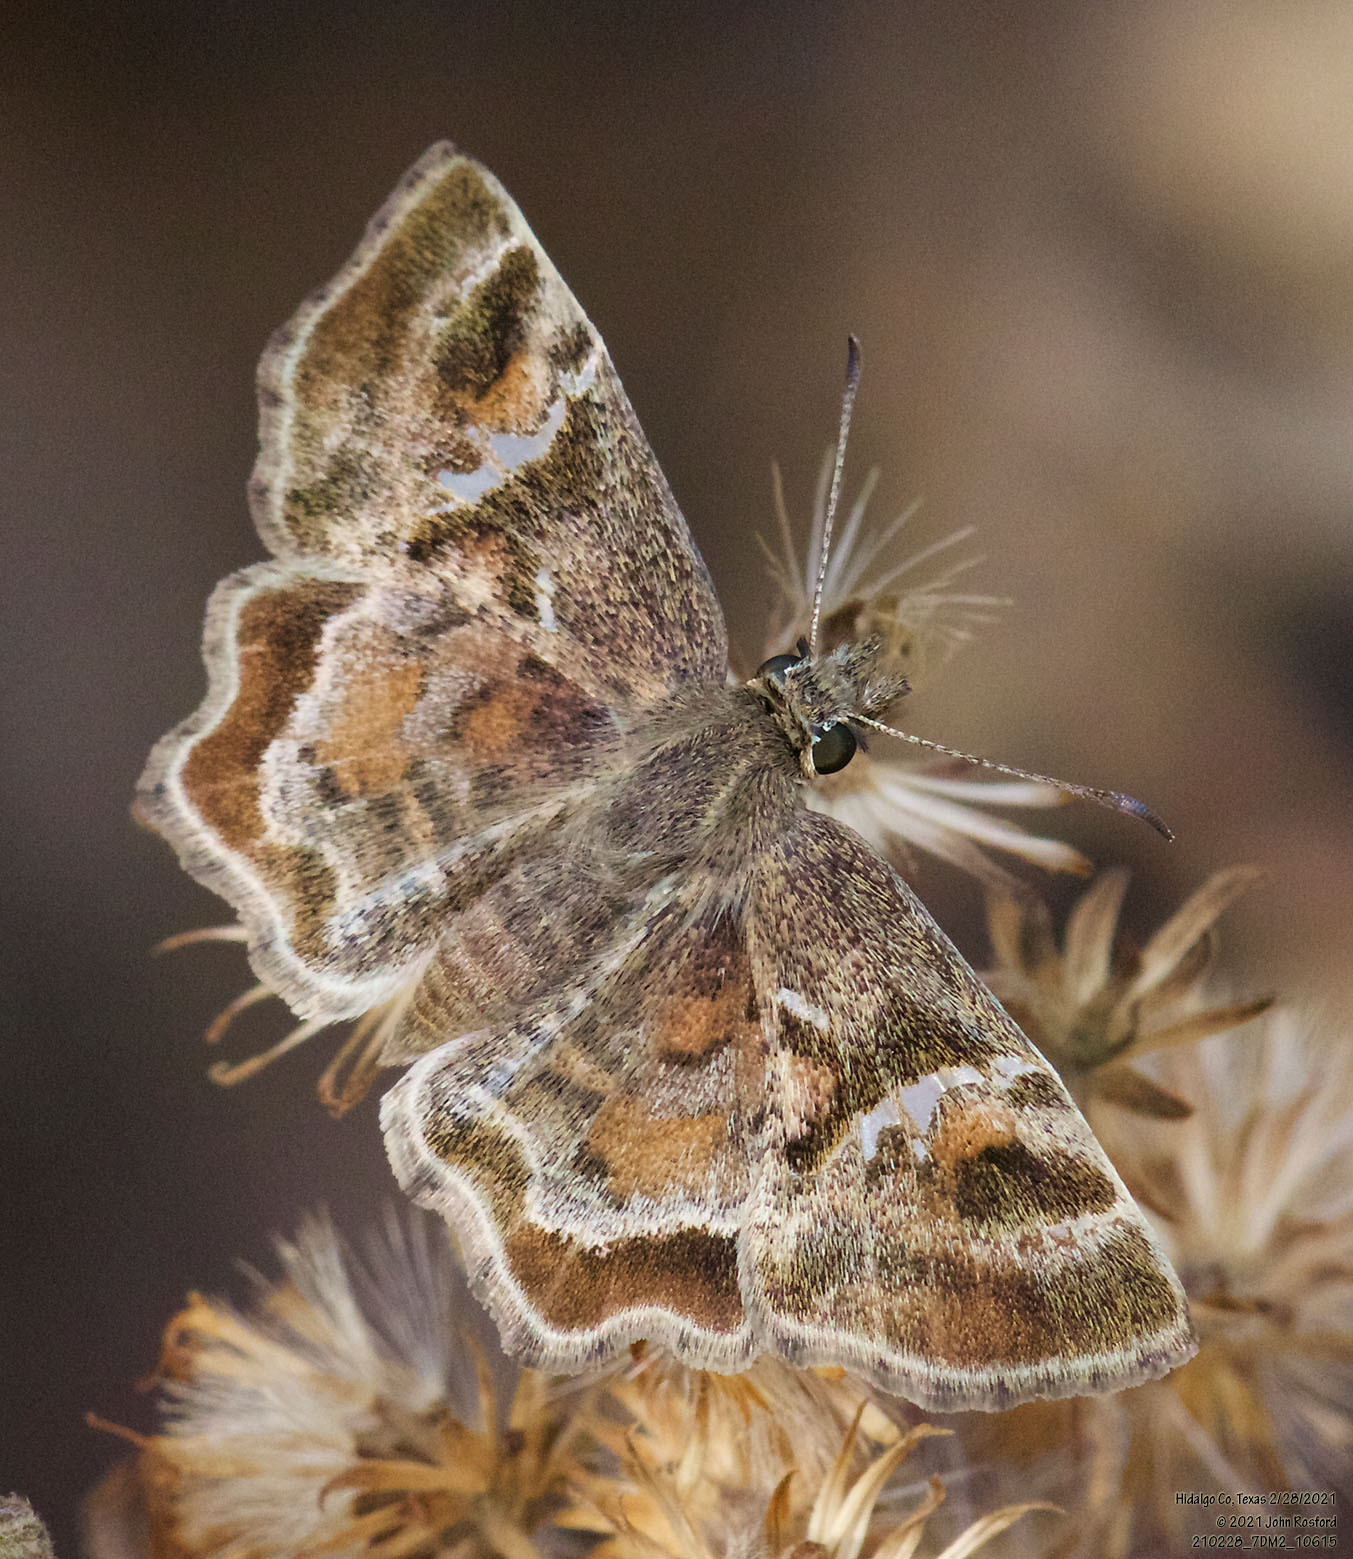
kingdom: Animalia
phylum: Arthropoda
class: Insecta
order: Lepidoptera
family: Hesperiidae
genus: Systasea
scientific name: Systasea pulverulenta
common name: Texas powdered skipper
